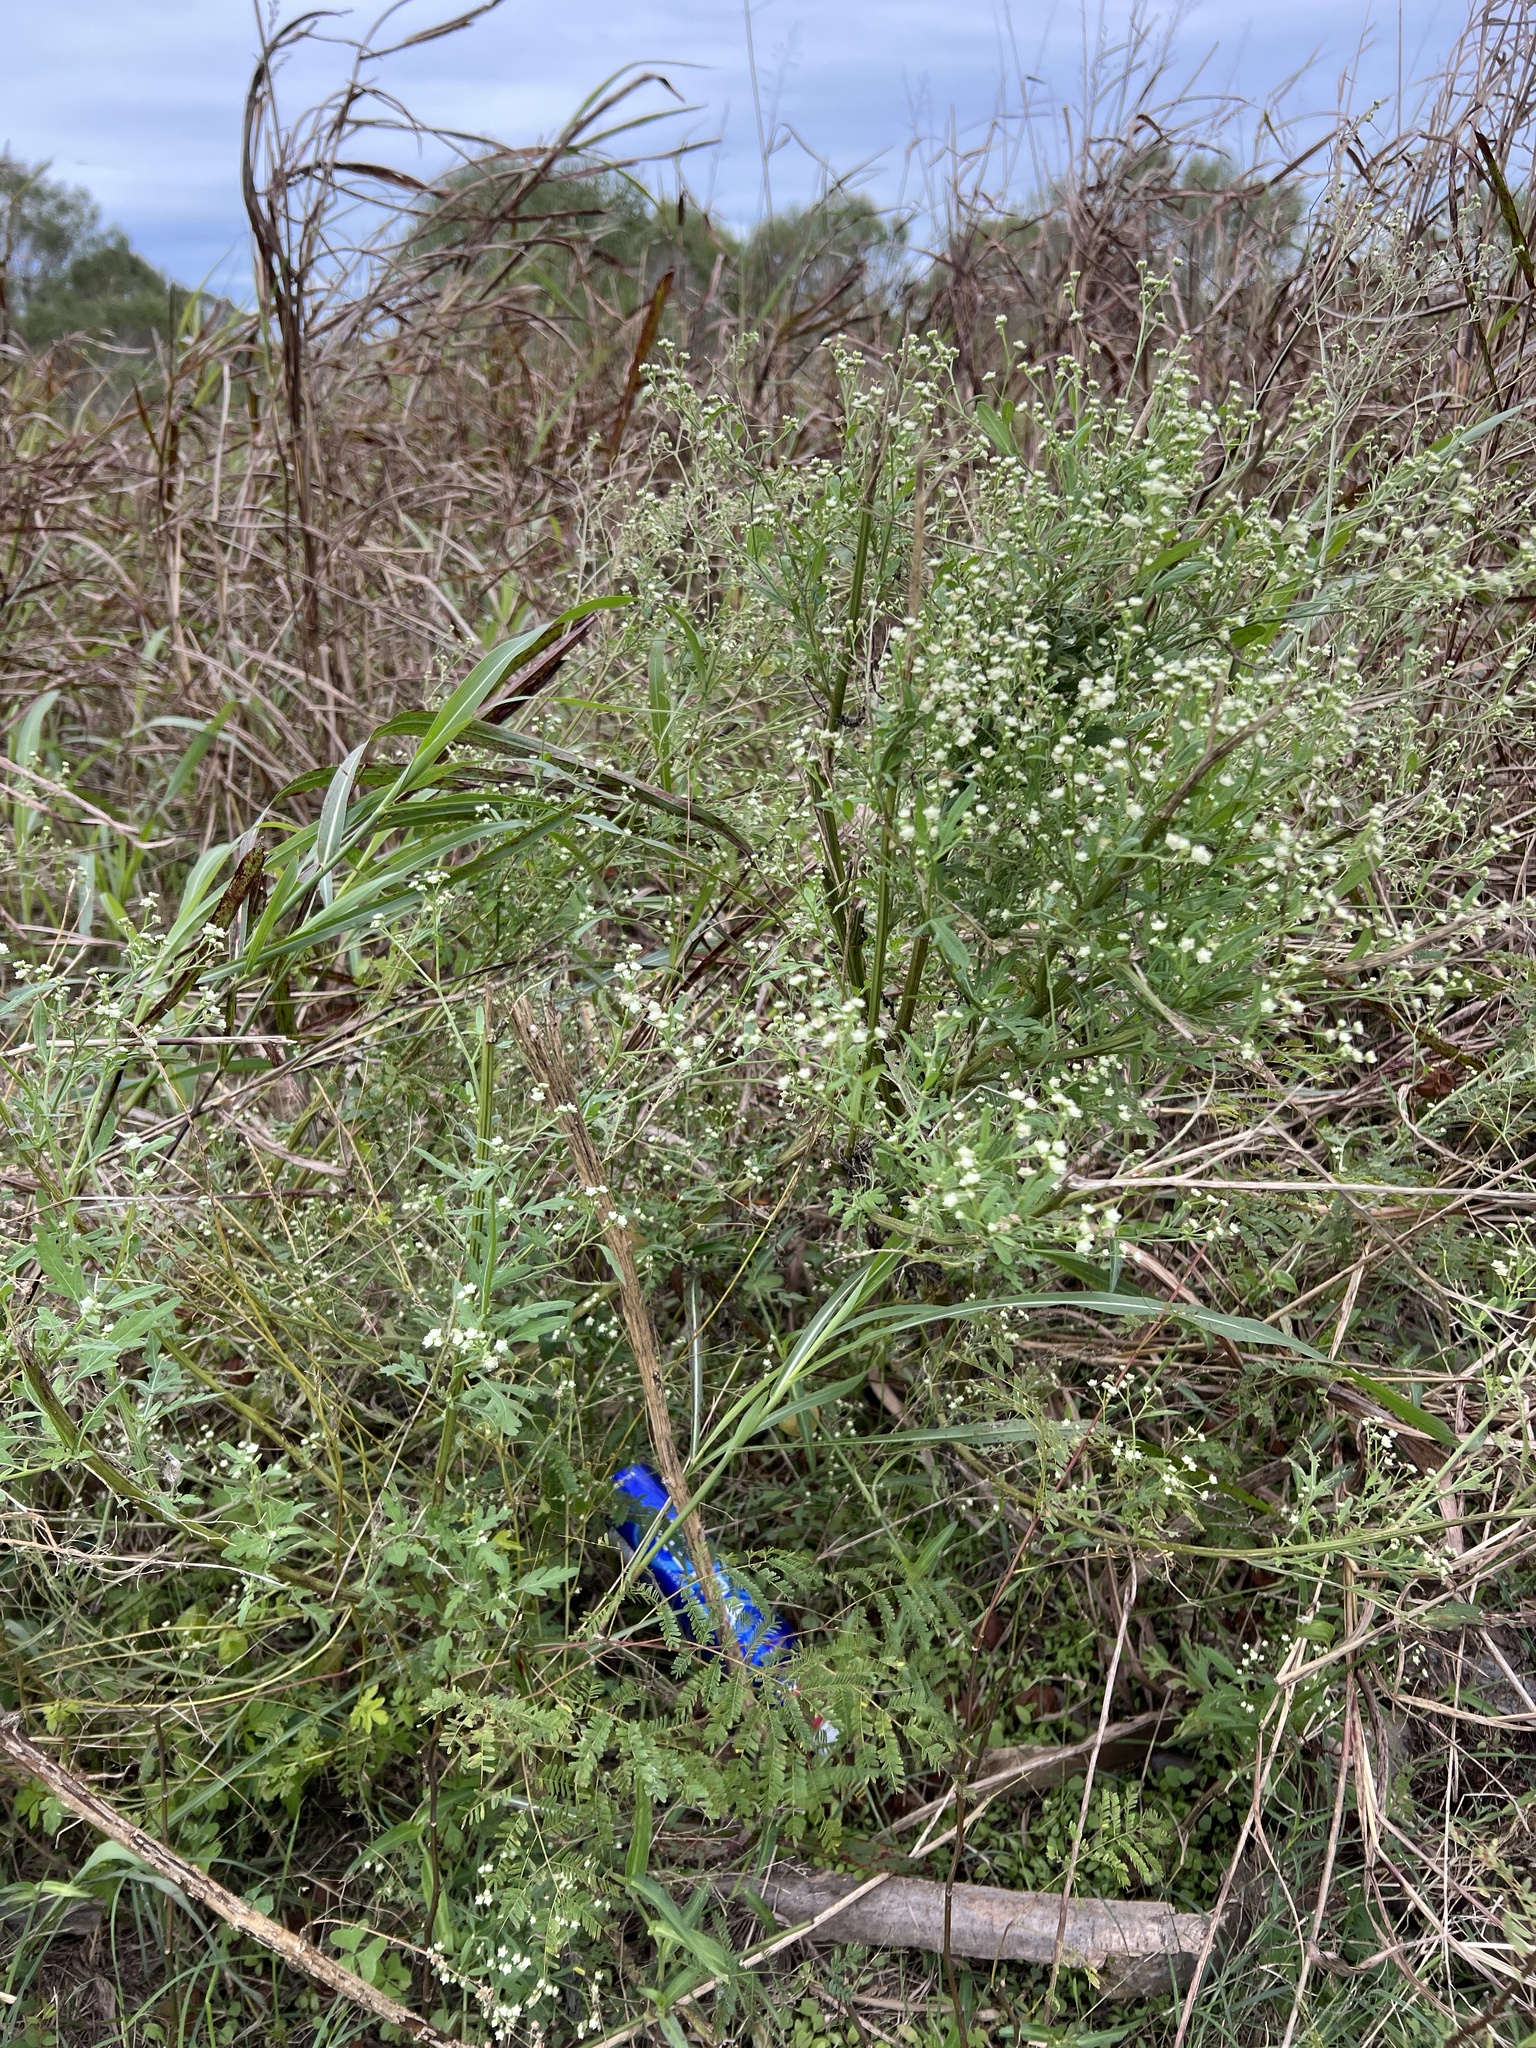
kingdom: Plantae
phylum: Tracheophyta
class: Magnoliopsida
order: Asterales
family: Asteraceae
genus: Parthenium
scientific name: Parthenium hysterophorus
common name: Santa maria feverfew
